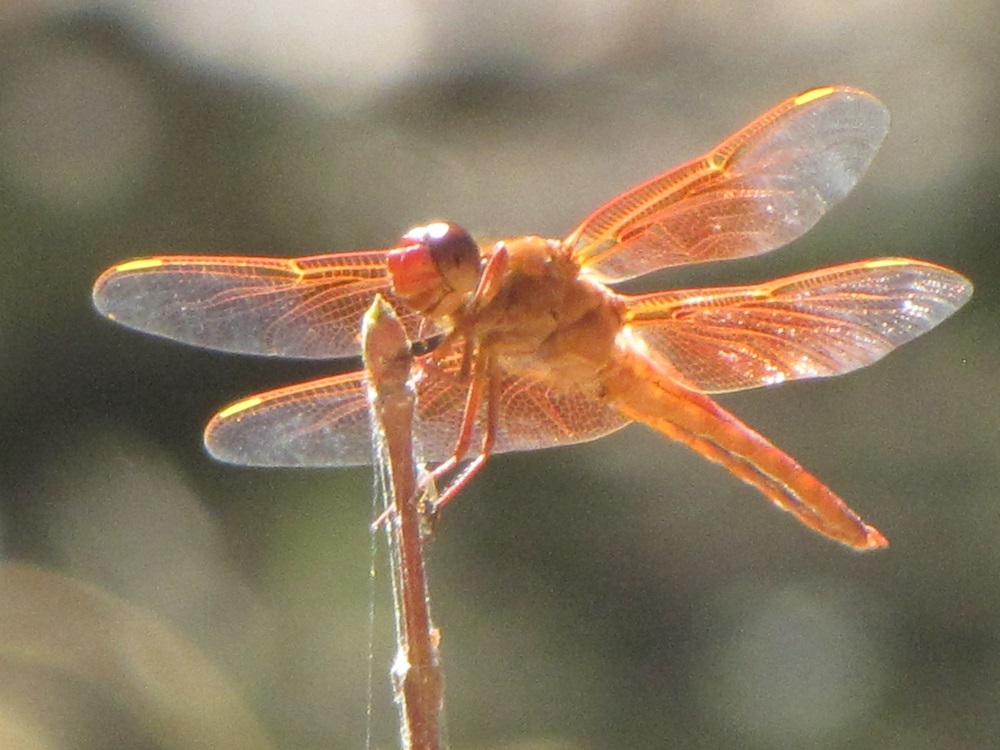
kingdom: Animalia
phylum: Arthropoda
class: Insecta
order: Odonata
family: Libellulidae
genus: Libellula
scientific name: Libellula saturata
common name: Flame skimmer
